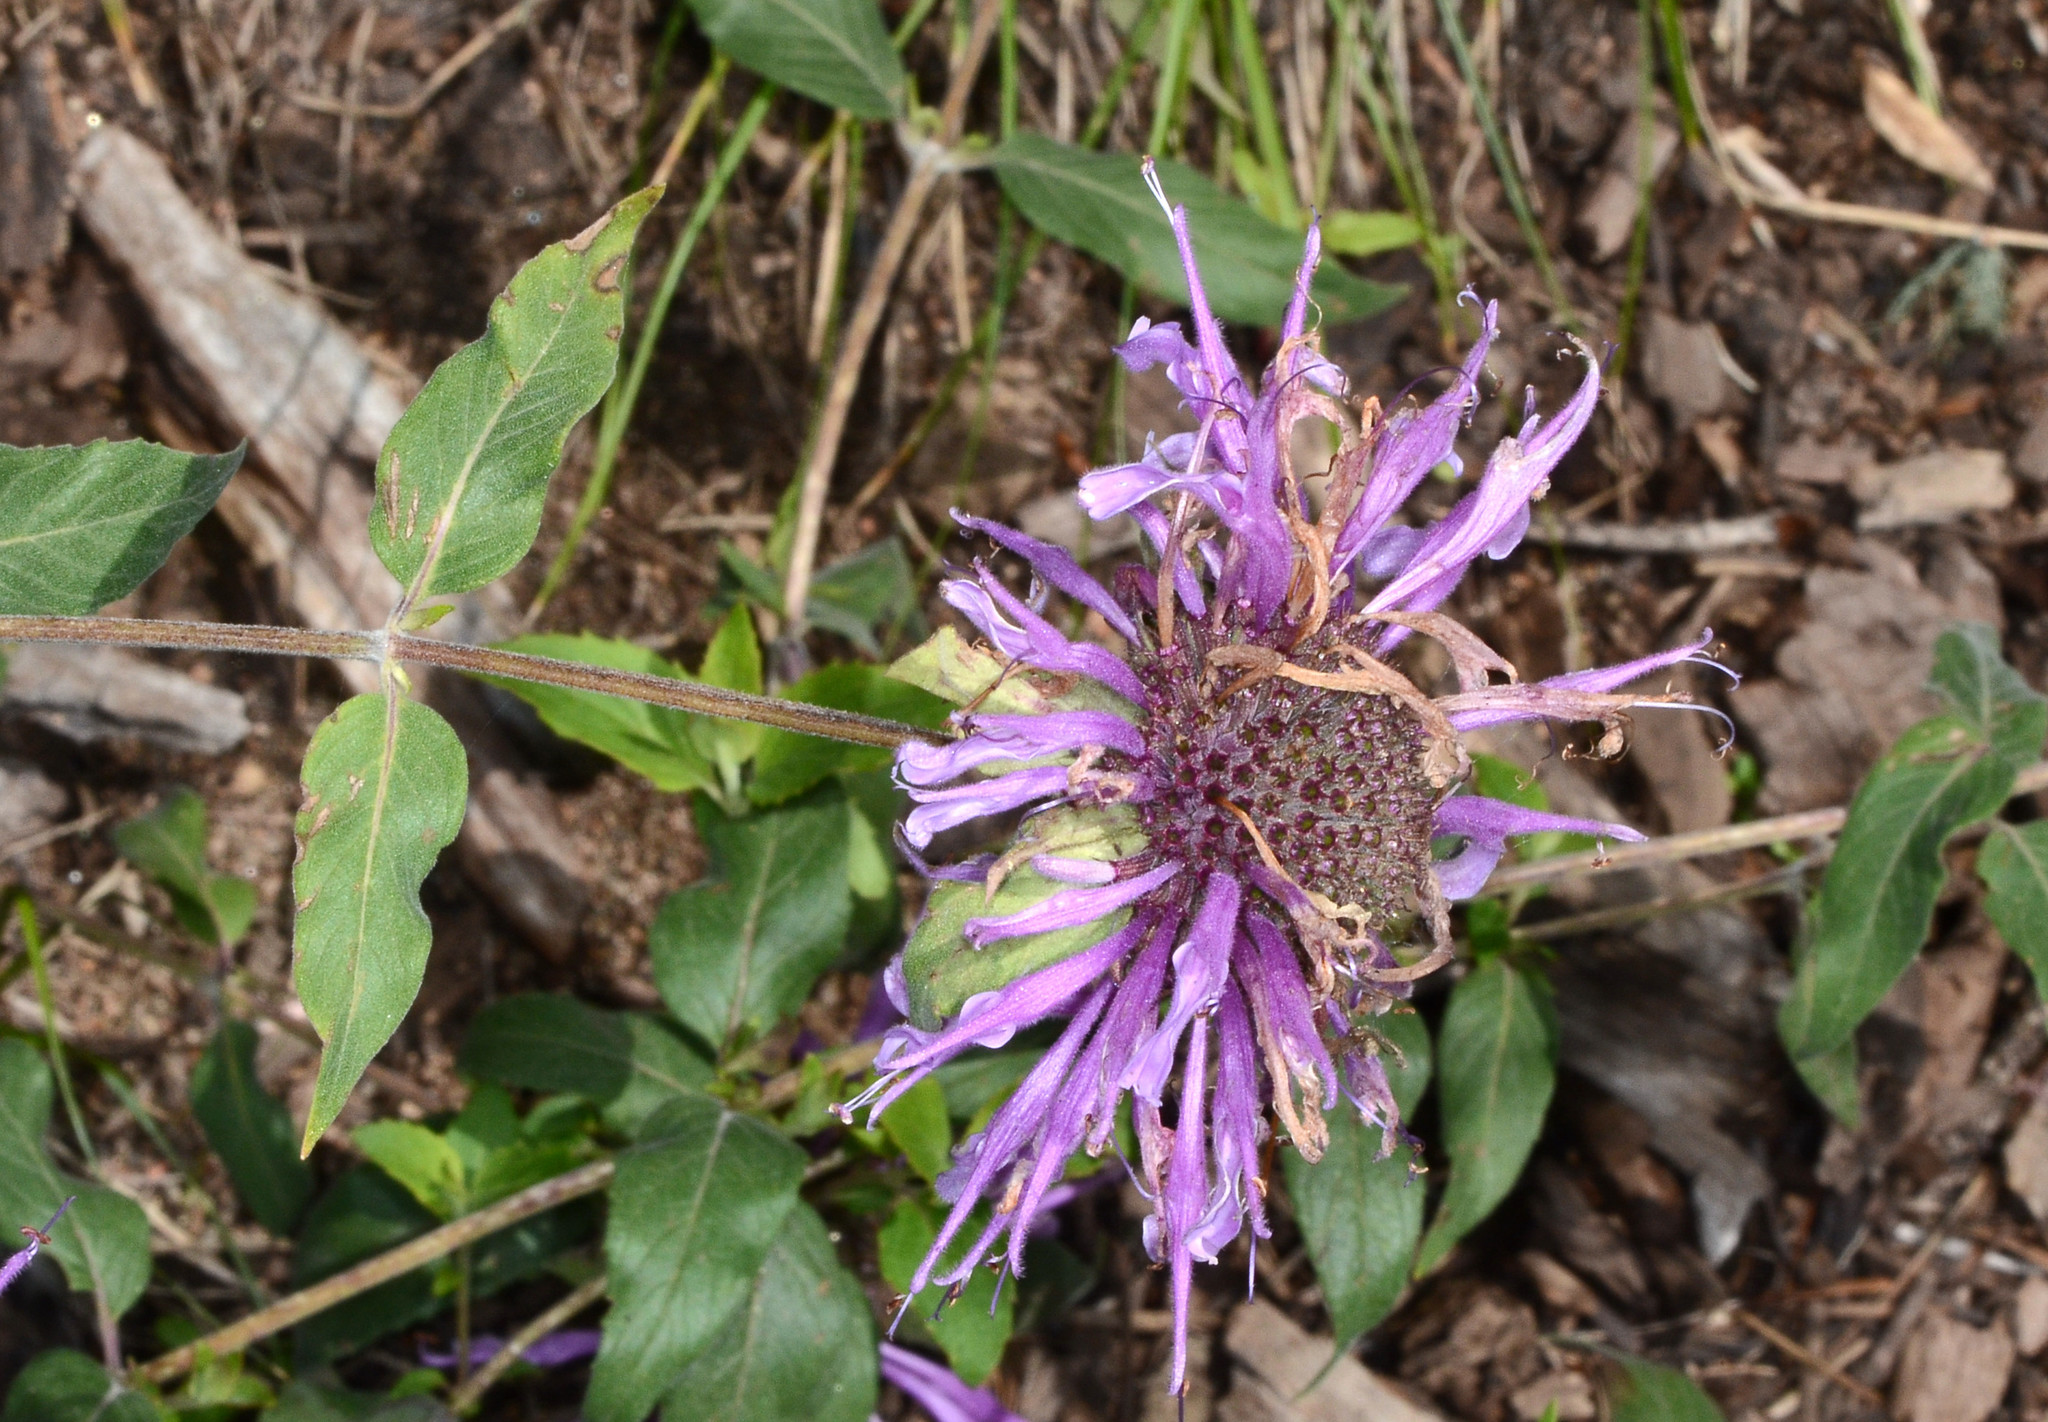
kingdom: Plantae
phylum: Tracheophyta
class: Magnoliopsida
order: Lamiales
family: Lamiaceae
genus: Monarda
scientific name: Monarda fistulosa
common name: Purple beebalm
